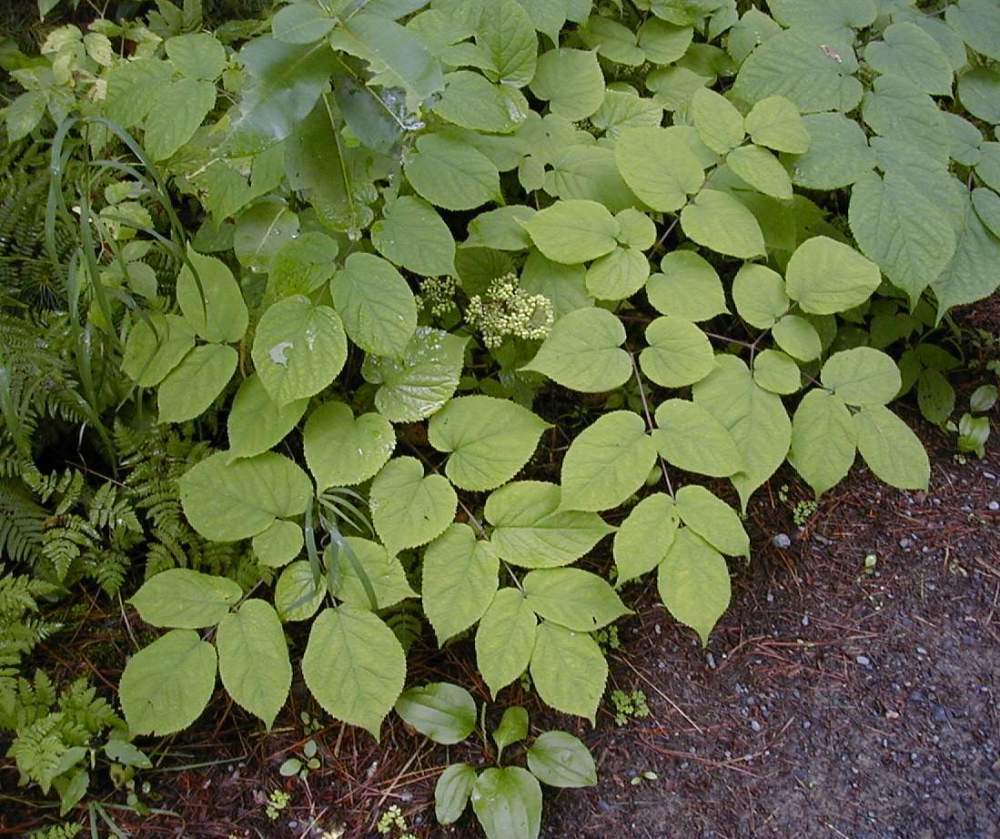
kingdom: Plantae
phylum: Tracheophyta
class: Magnoliopsida
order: Apiales
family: Araliaceae
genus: Aralia
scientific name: Aralia racemosa
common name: American-spikenard
